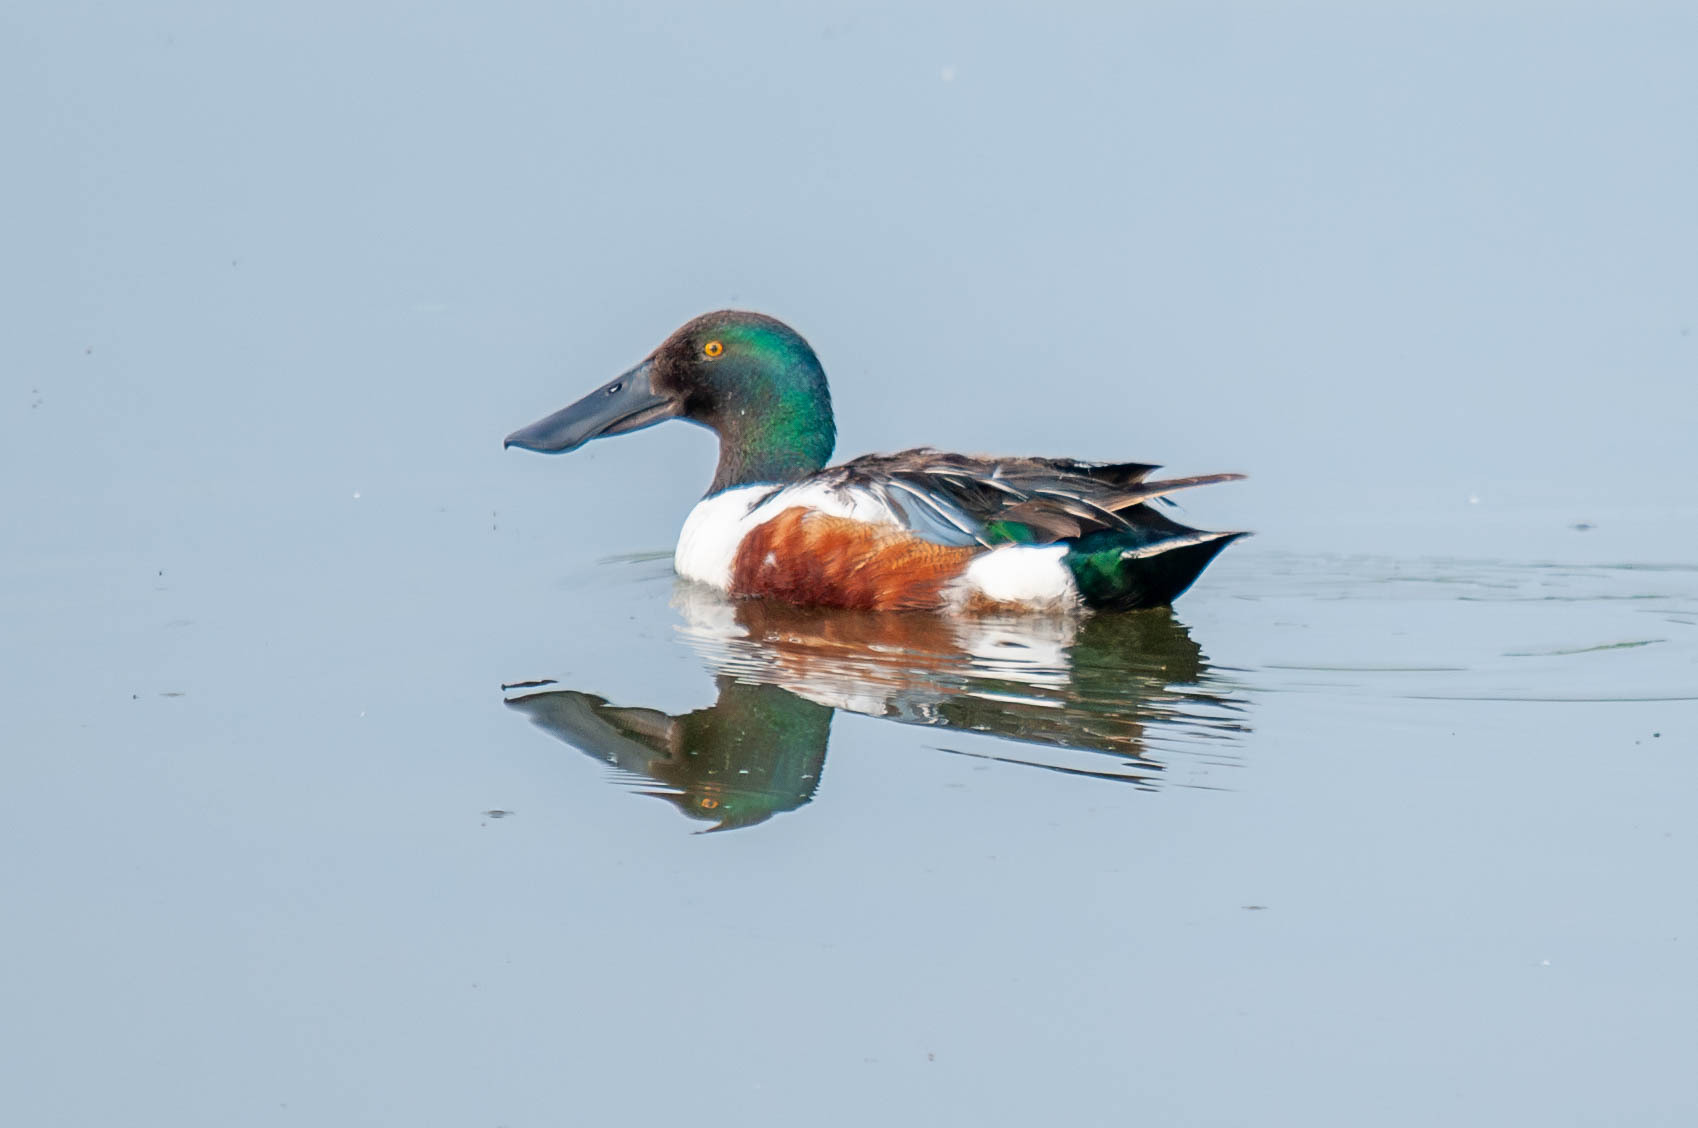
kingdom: Animalia
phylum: Chordata
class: Aves
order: Anseriformes
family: Anatidae
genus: Spatula
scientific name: Spatula clypeata
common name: Northern shoveler
